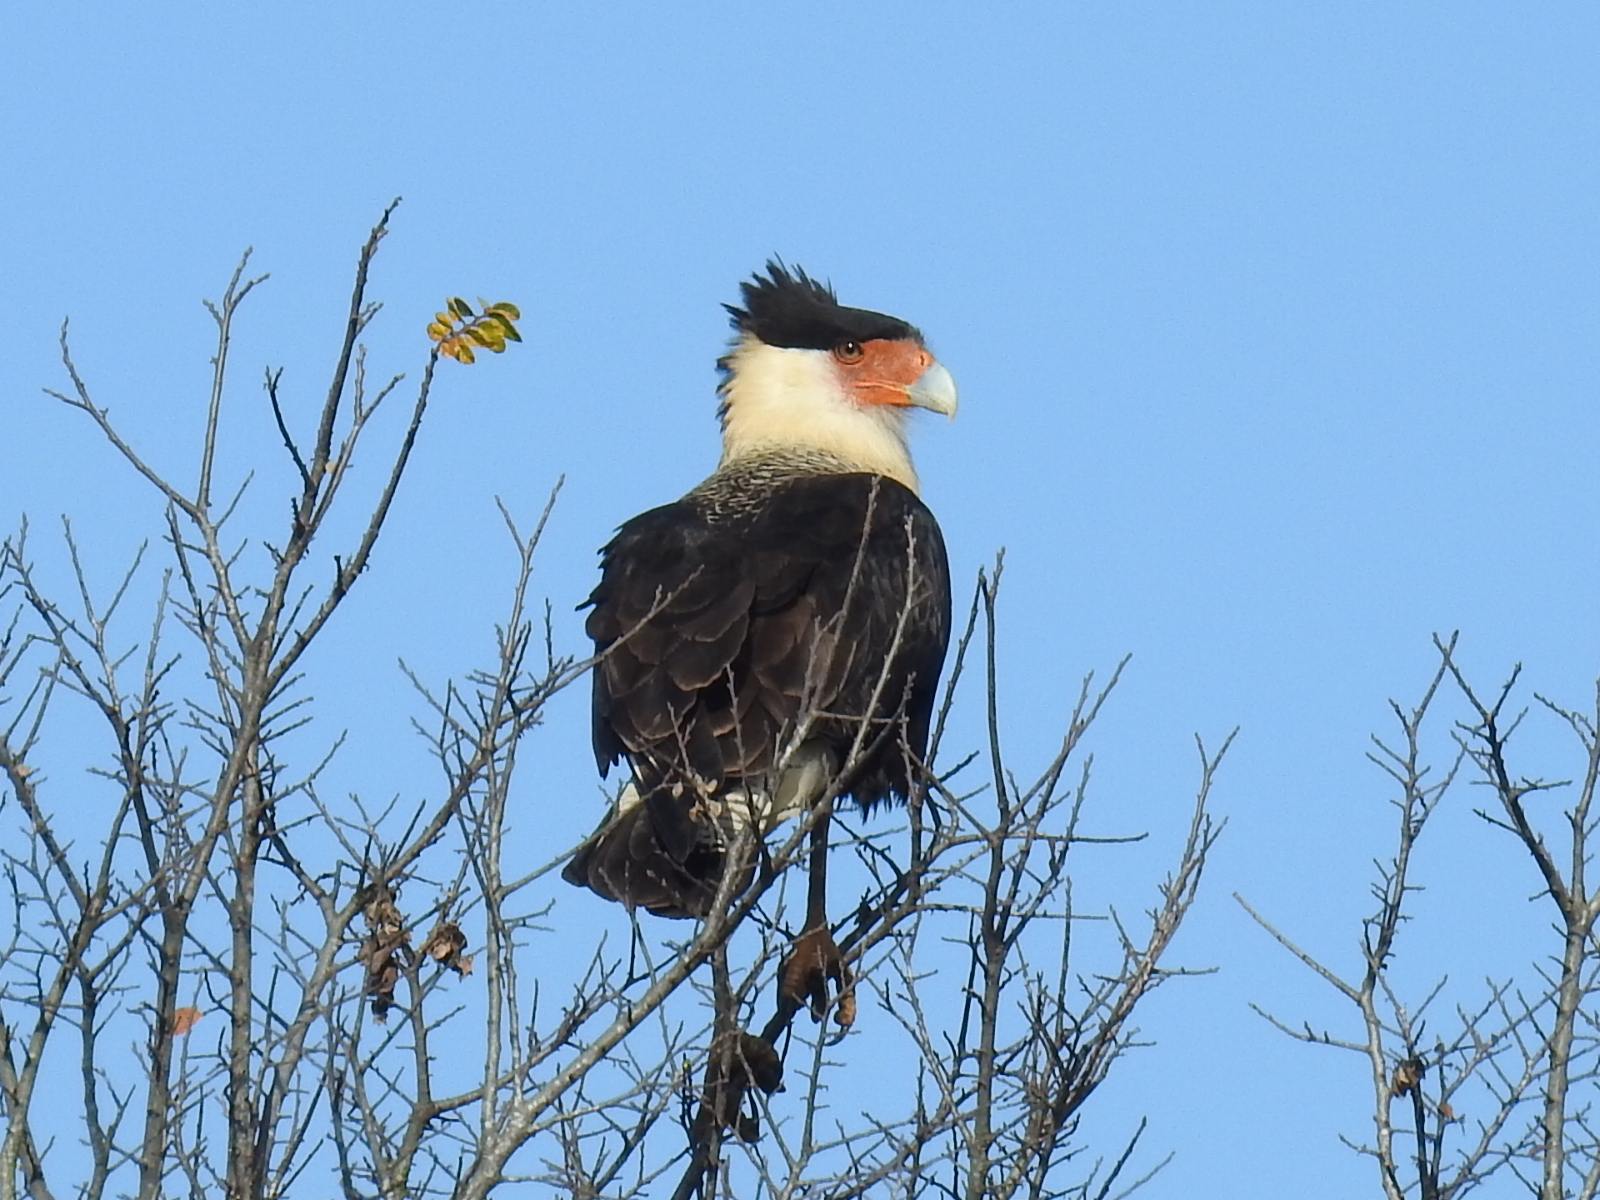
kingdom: Animalia
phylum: Chordata
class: Aves
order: Falconiformes
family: Falconidae
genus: Caracara
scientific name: Caracara plancus
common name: Southern caracara
